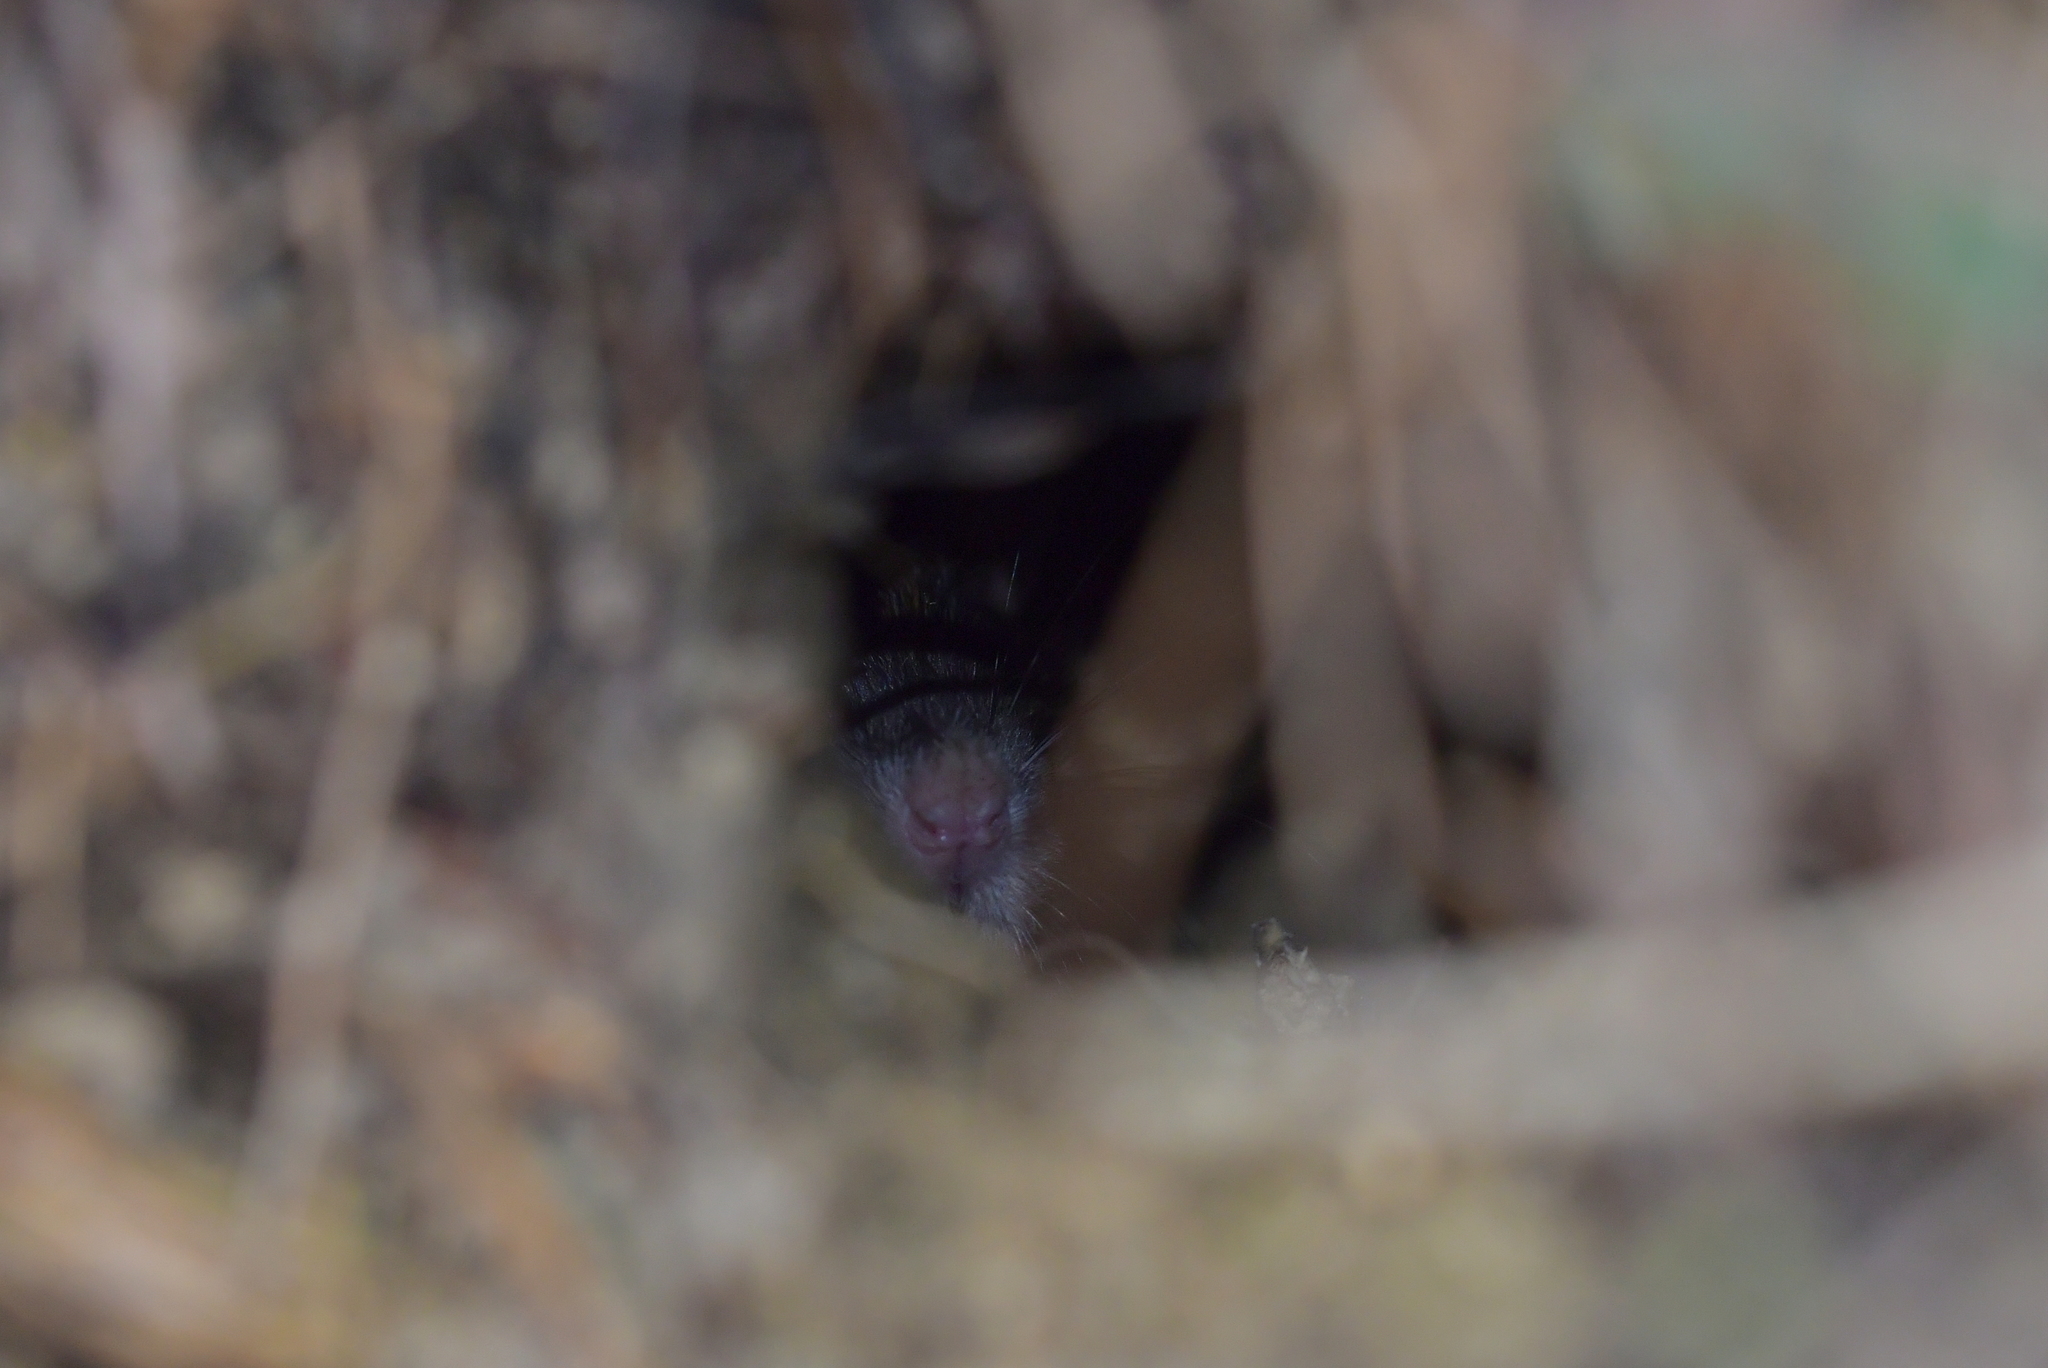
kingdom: Animalia
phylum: Chordata
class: Mammalia
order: Rodentia
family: Muridae
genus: Rattus
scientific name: Rattus norvegicus
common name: Brown rat
